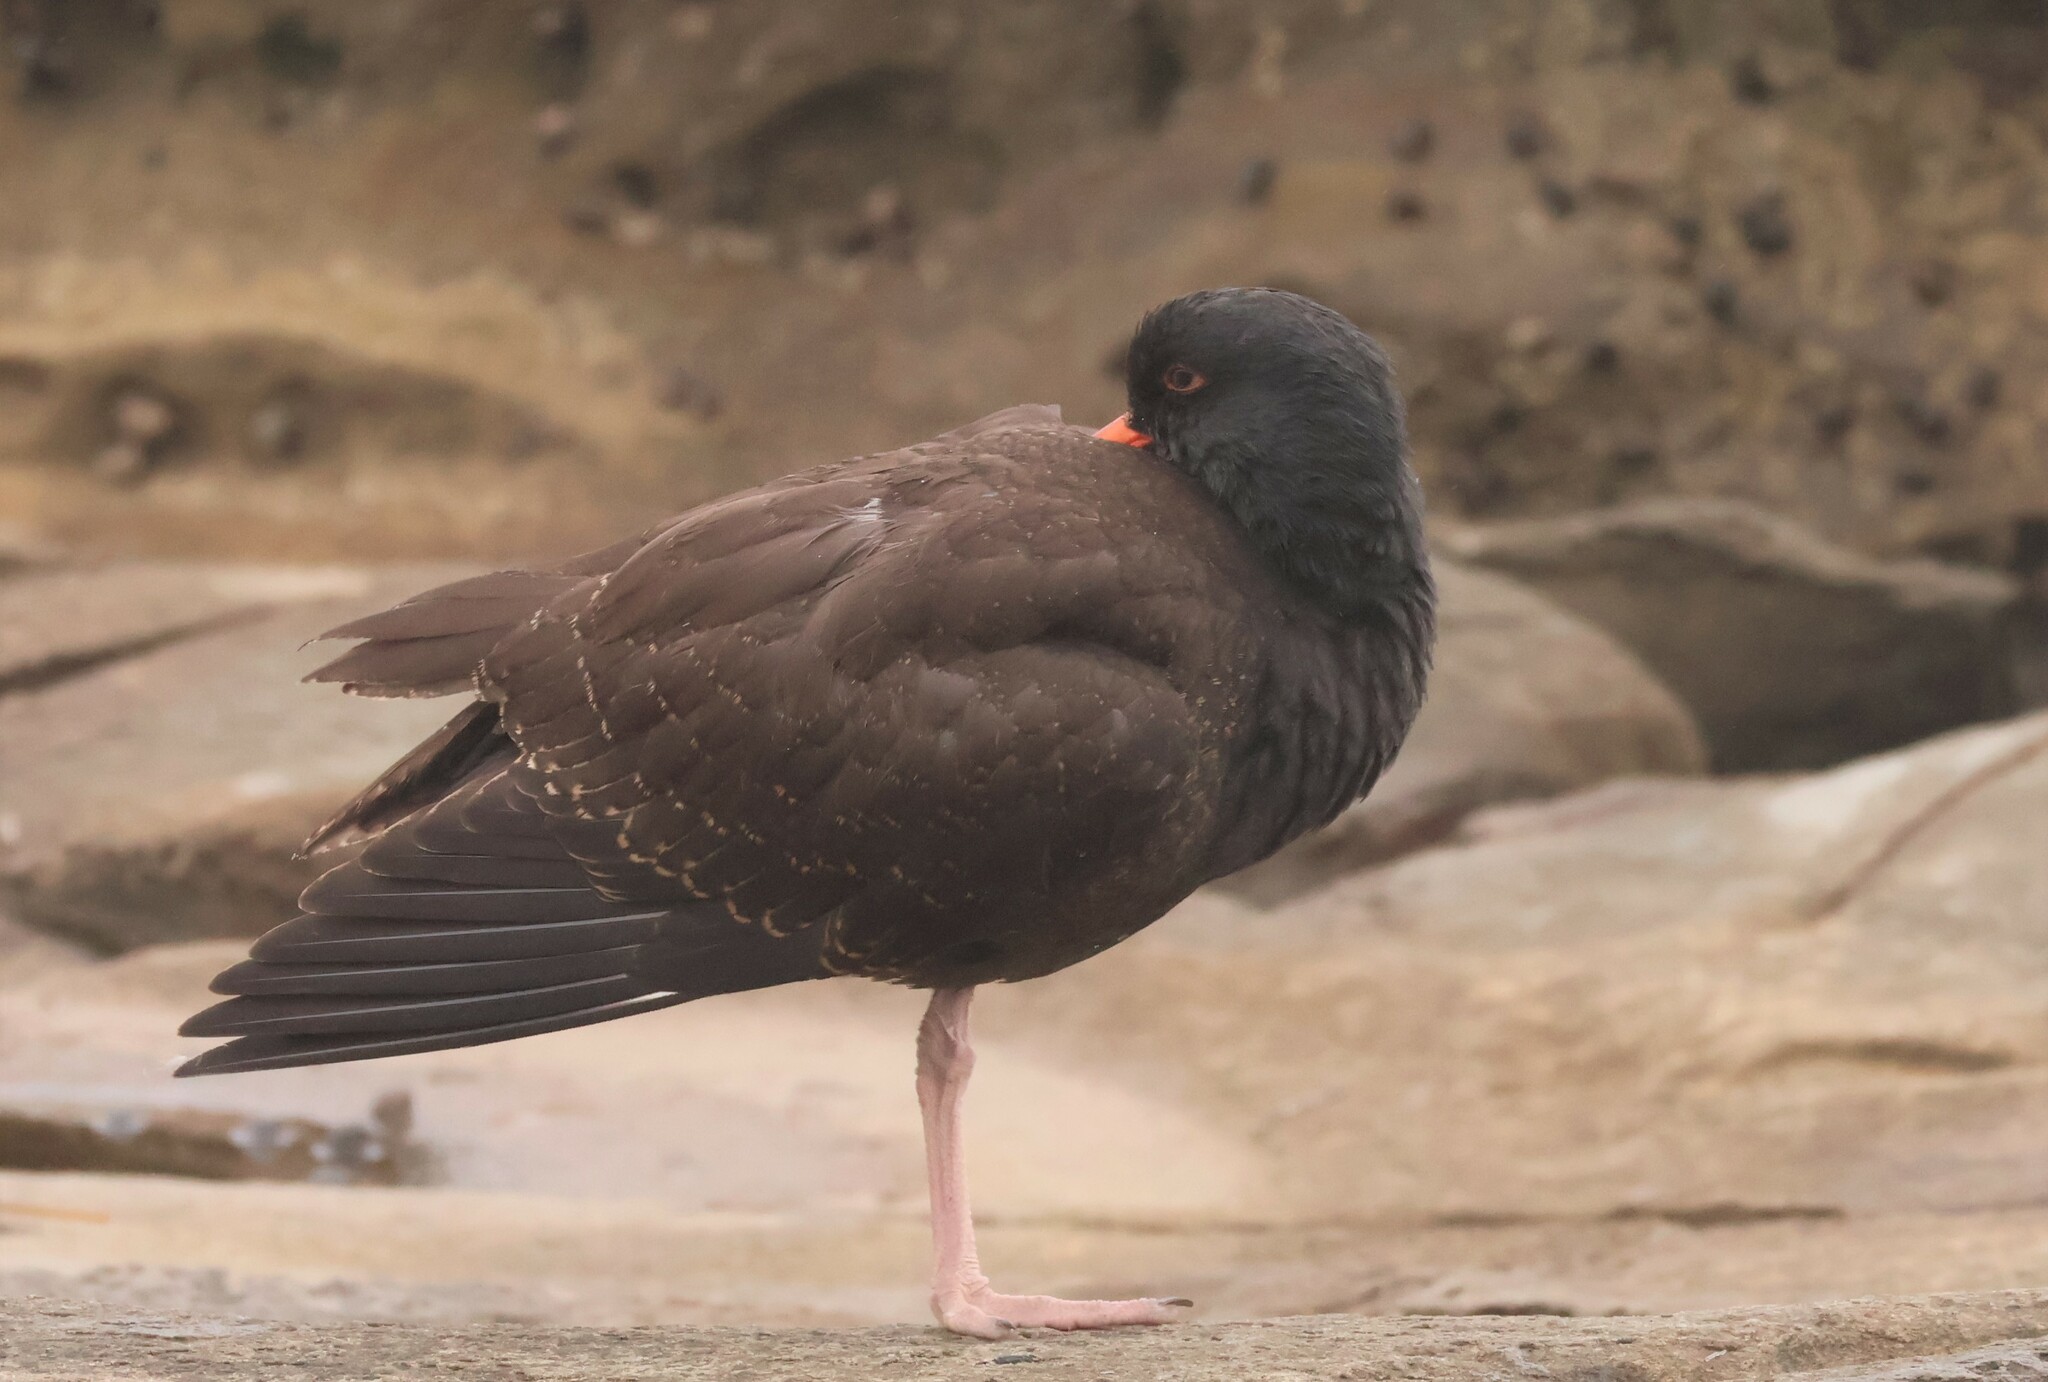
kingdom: Animalia
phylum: Chordata
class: Aves
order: Charadriiformes
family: Haematopodidae
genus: Haematopus
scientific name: Haematopus bachmani
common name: Black oystercatcher
